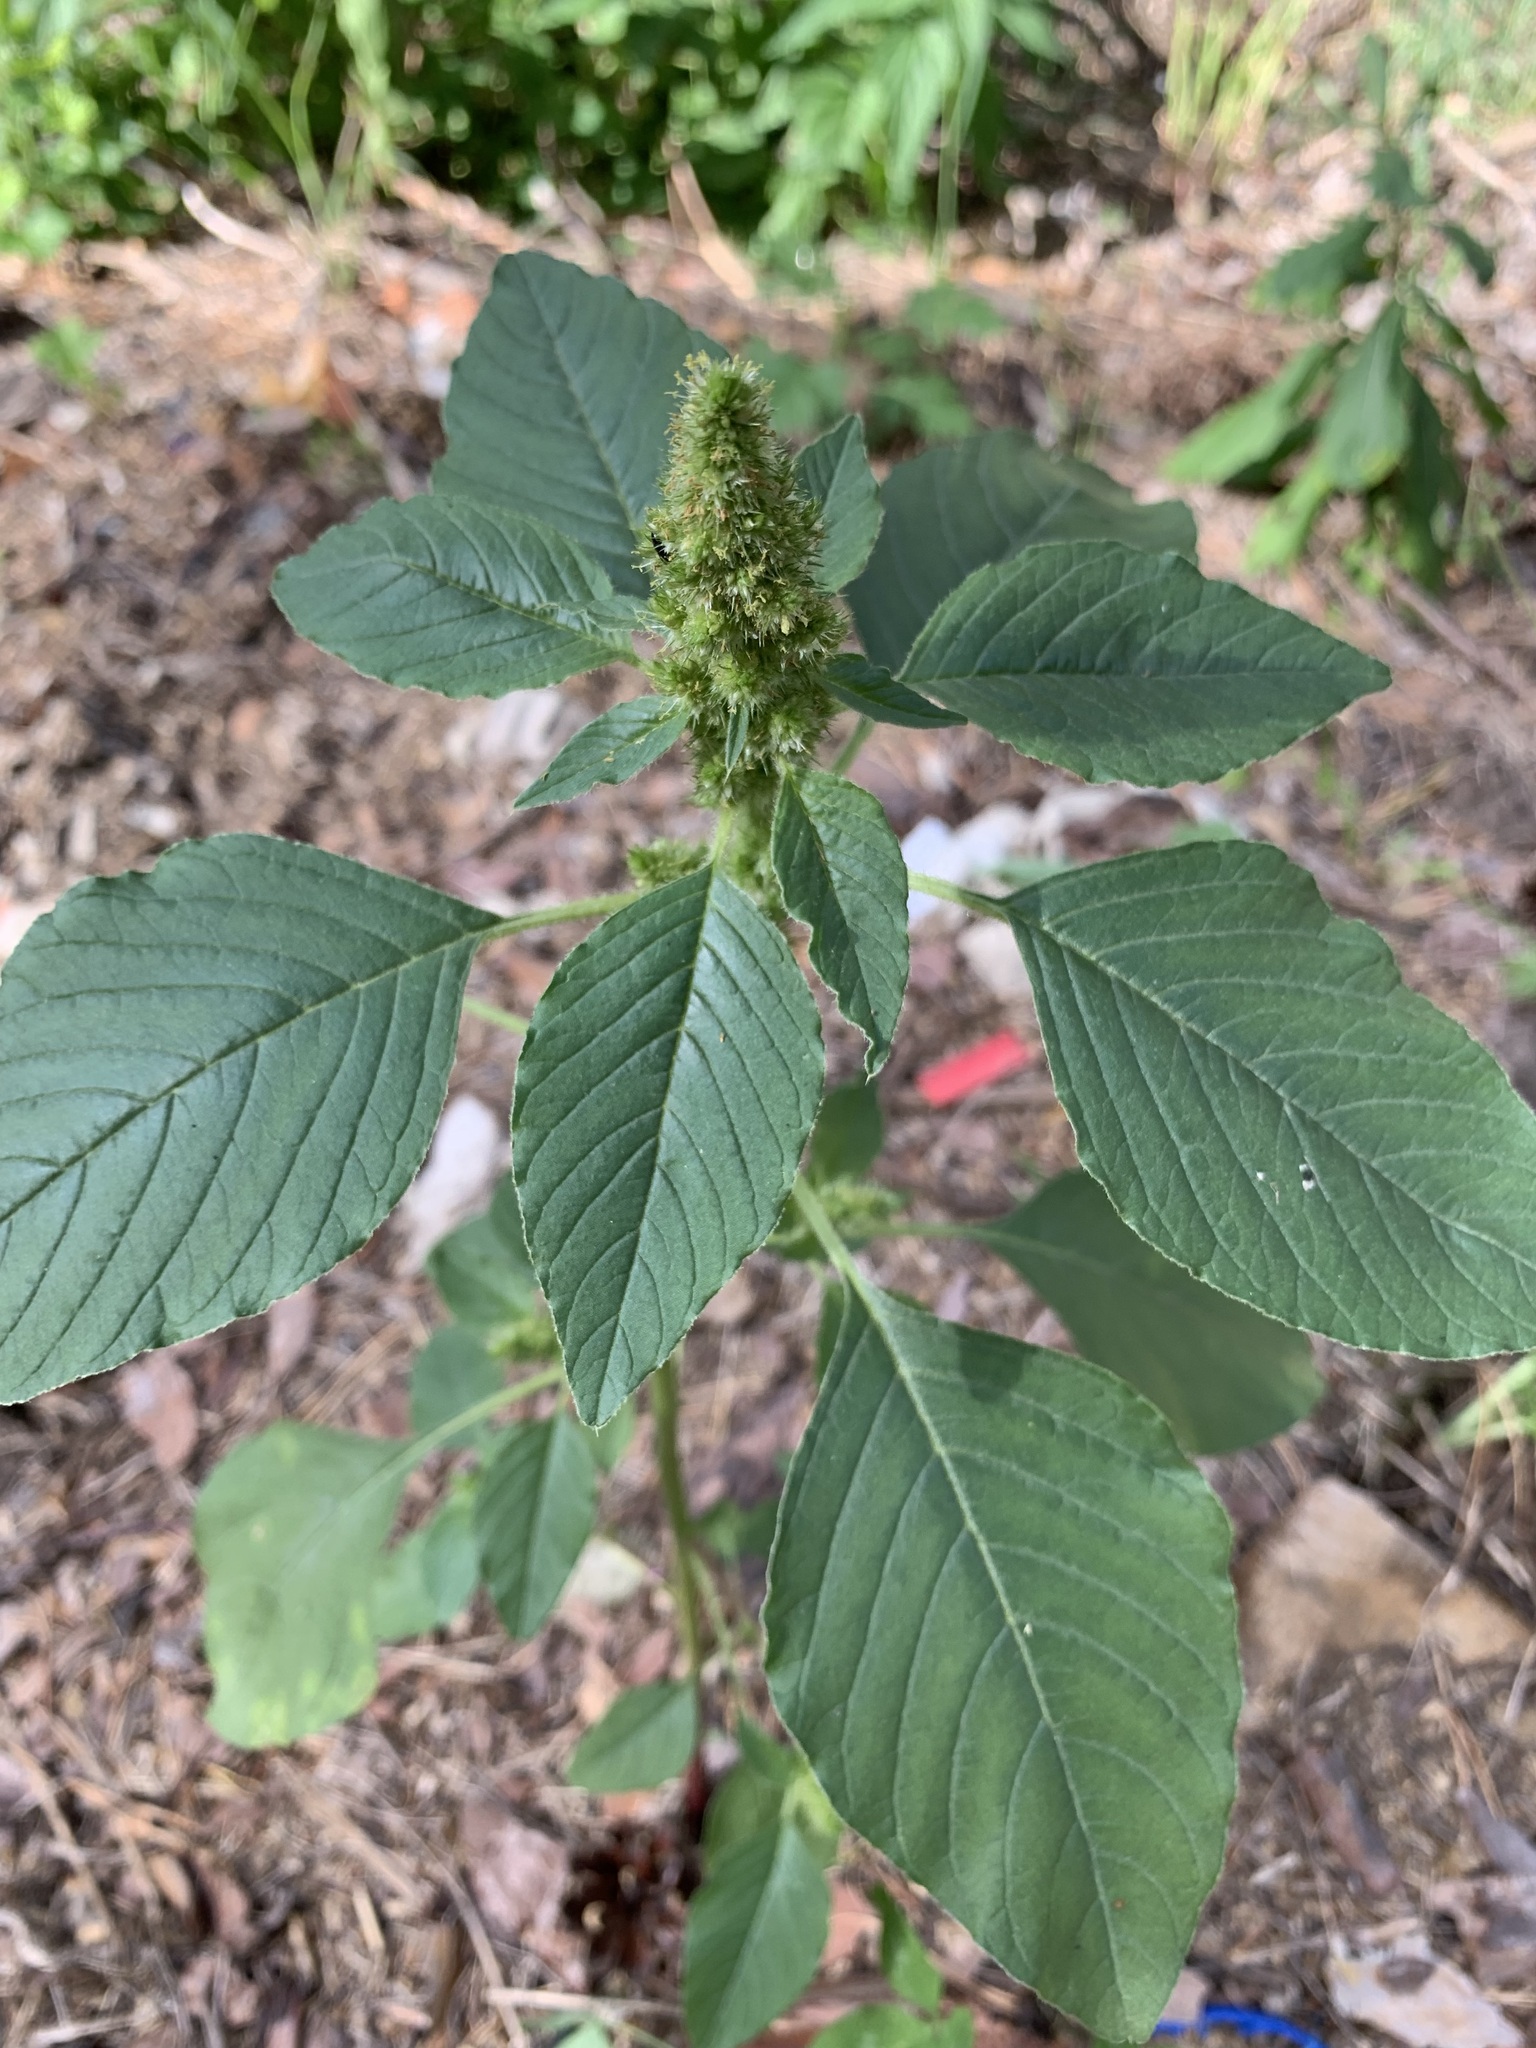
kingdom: Plantae
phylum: Tracheophyta
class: Magnoliopsida
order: Caryophyllales
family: Amaranthaceae
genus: Amaranthus
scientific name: Amaranthus retroflexus
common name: Redroot amaranth
